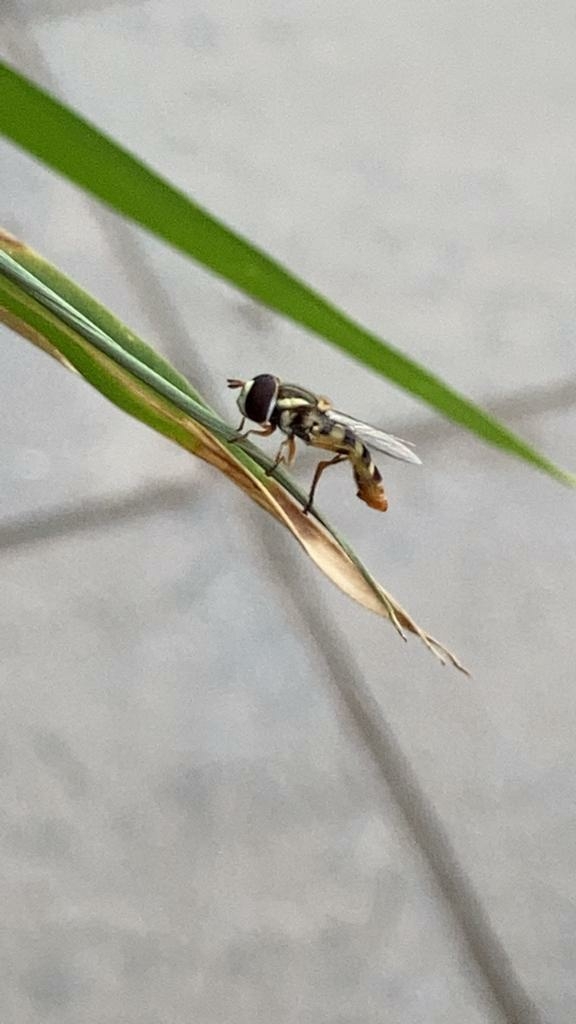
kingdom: Animalia
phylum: Arthropoda
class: Insecta
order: Diptera
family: Syrphidae
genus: Ischiodon
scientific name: Ischiodon scutellaris
